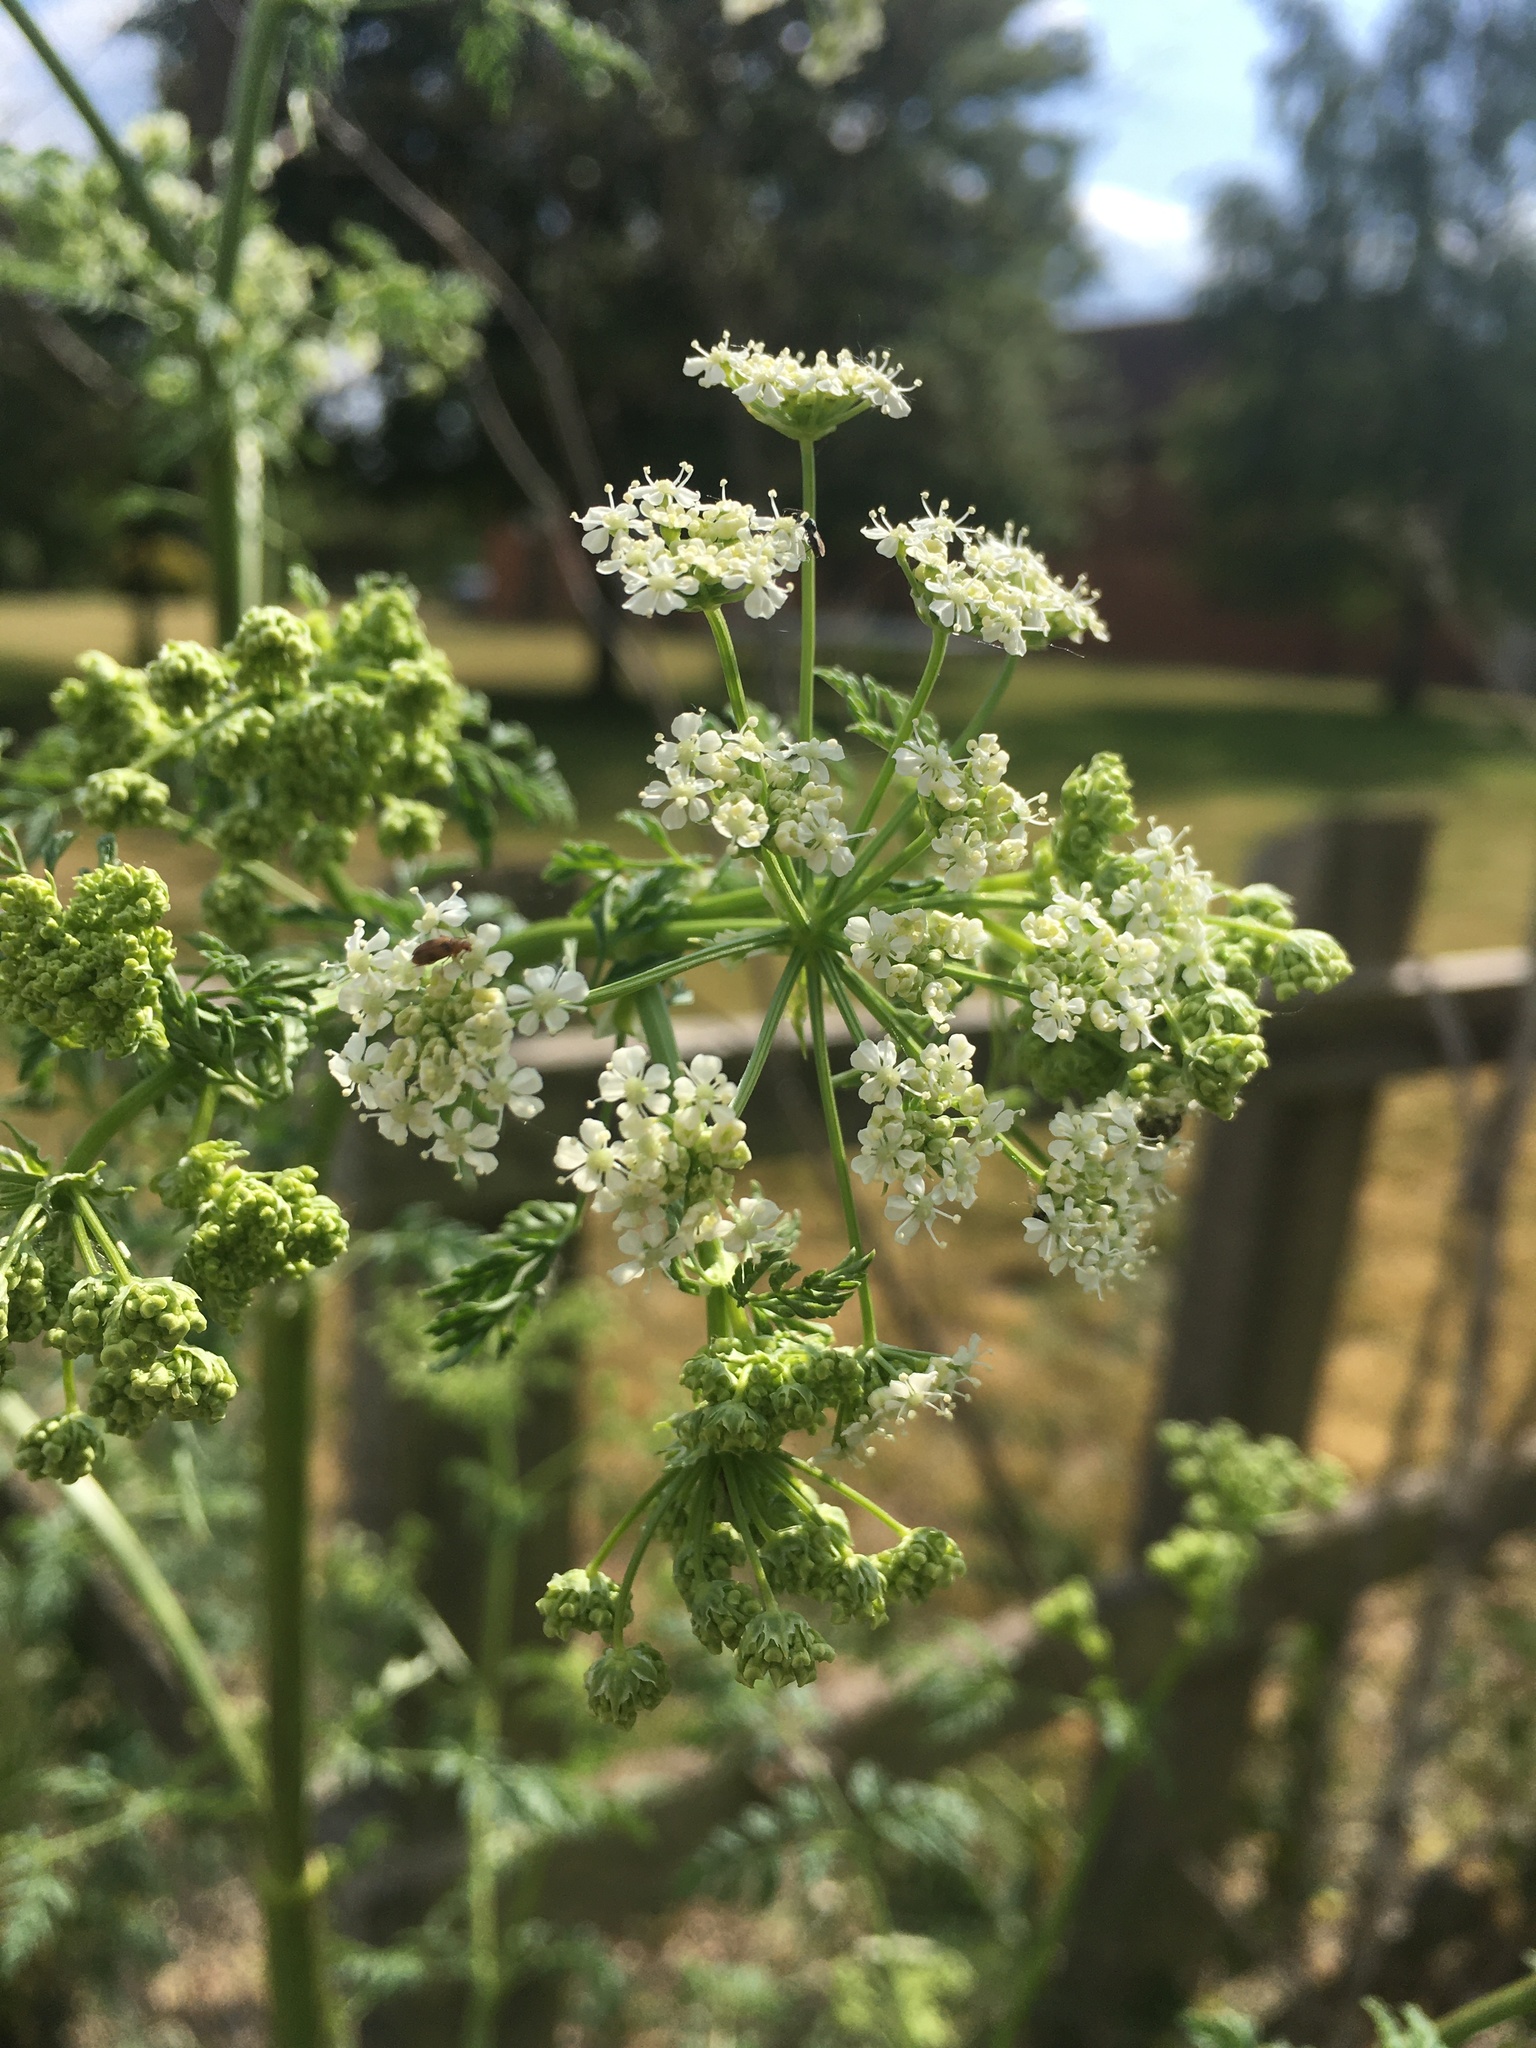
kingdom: Plantae
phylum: Tracheophyta
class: Magnoliopsida
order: Apiales
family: Apiaceae
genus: Conium
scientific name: Conium maculatum
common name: Hemlock
